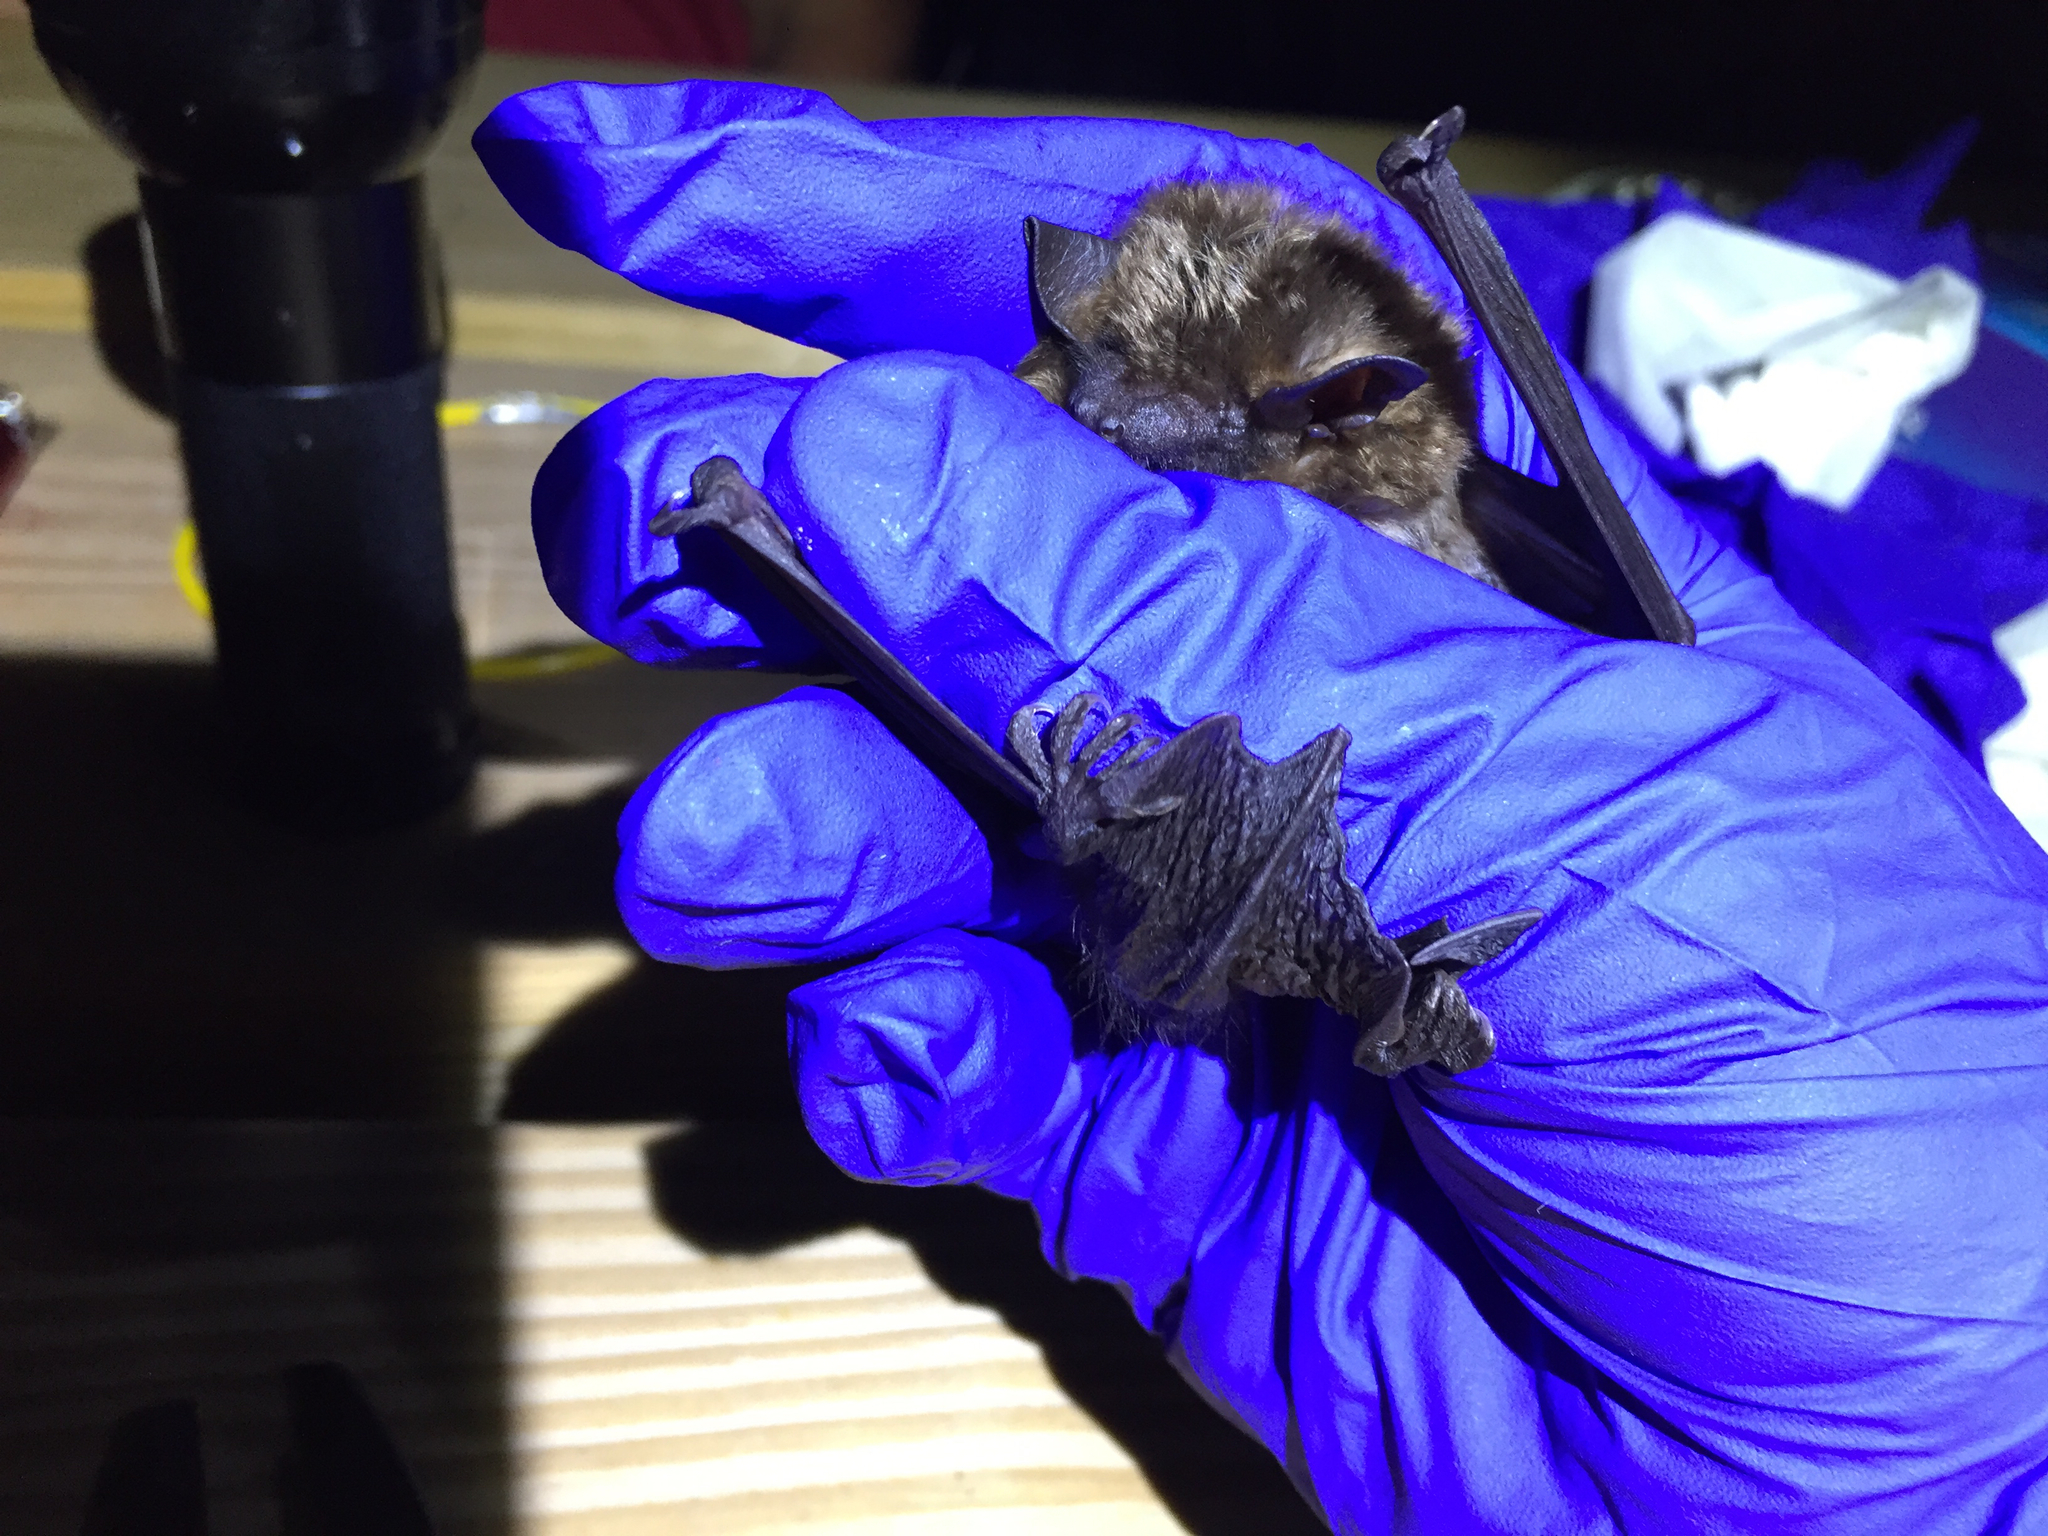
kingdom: Animalia
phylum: Chordata
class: Mammalia
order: Chiroptera
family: Vespertilionidae
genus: Eptesicus
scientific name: Eptesicus fuscus
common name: Big brown bat
